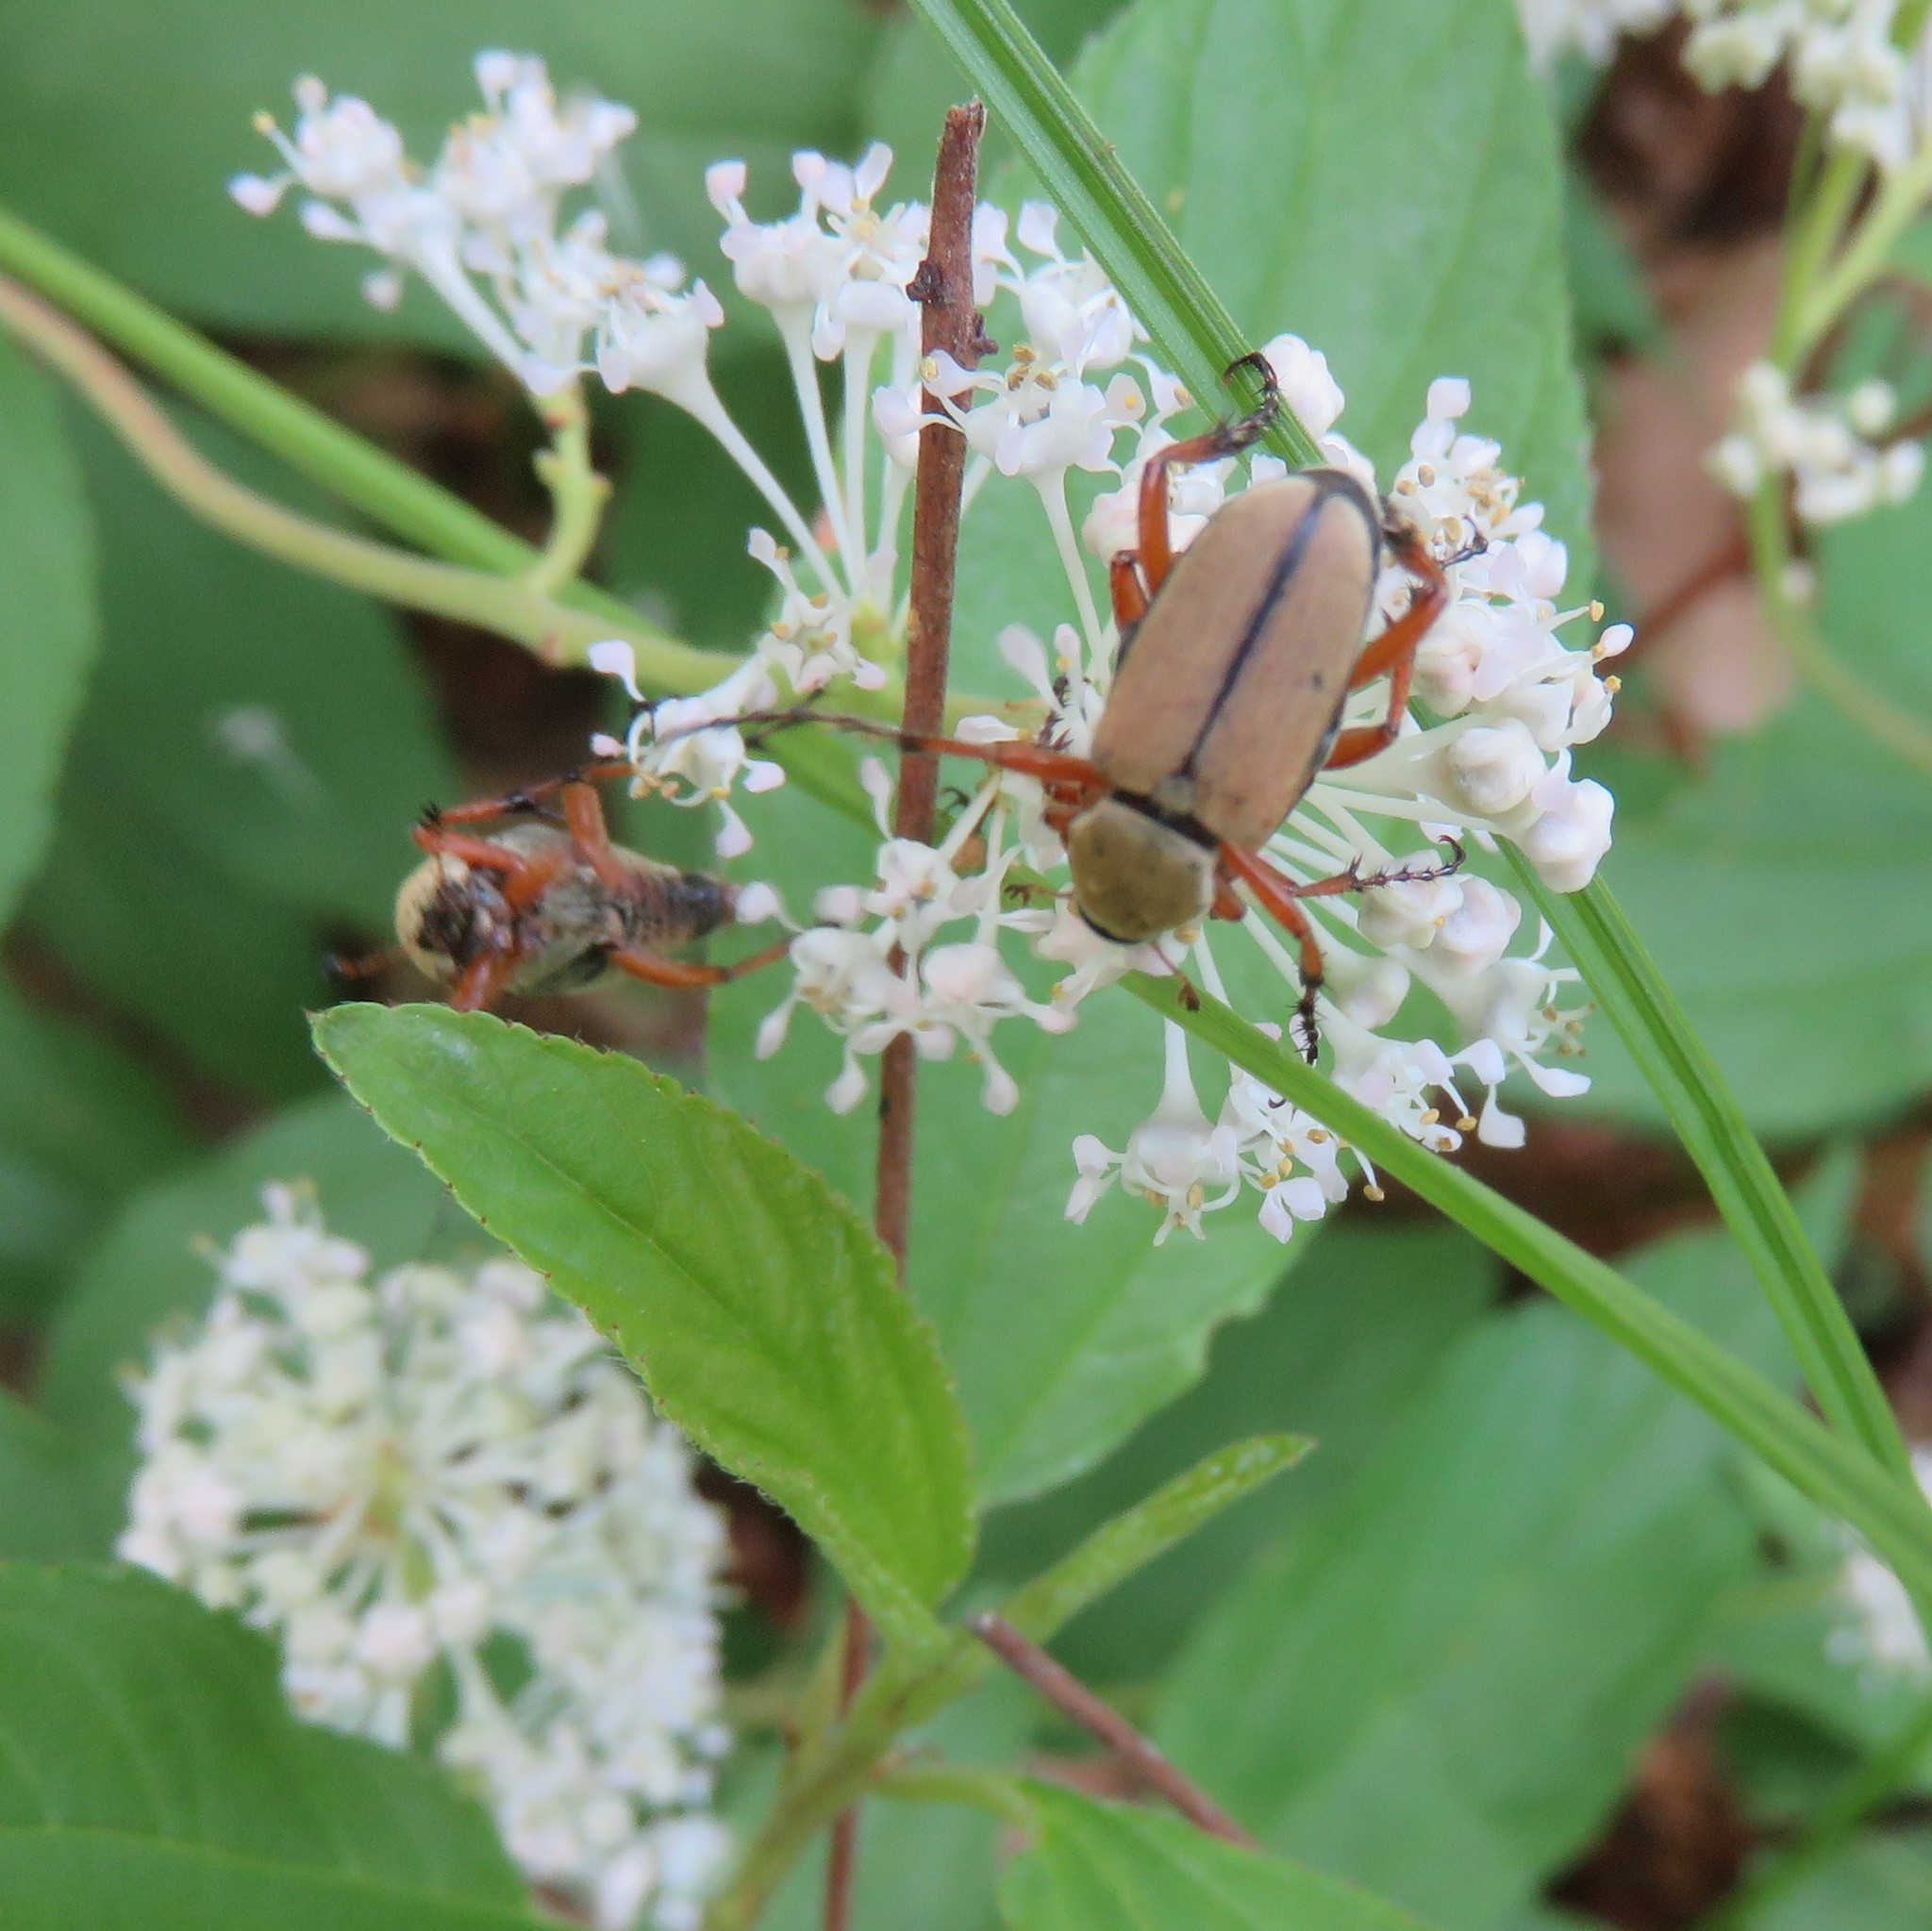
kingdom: Animalia
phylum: Arthropoda
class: Insecta
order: Coleoptera
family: Scarabaeidae
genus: Macrodactylus
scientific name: Macrodactylus subspinosus
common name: American rose chafer
